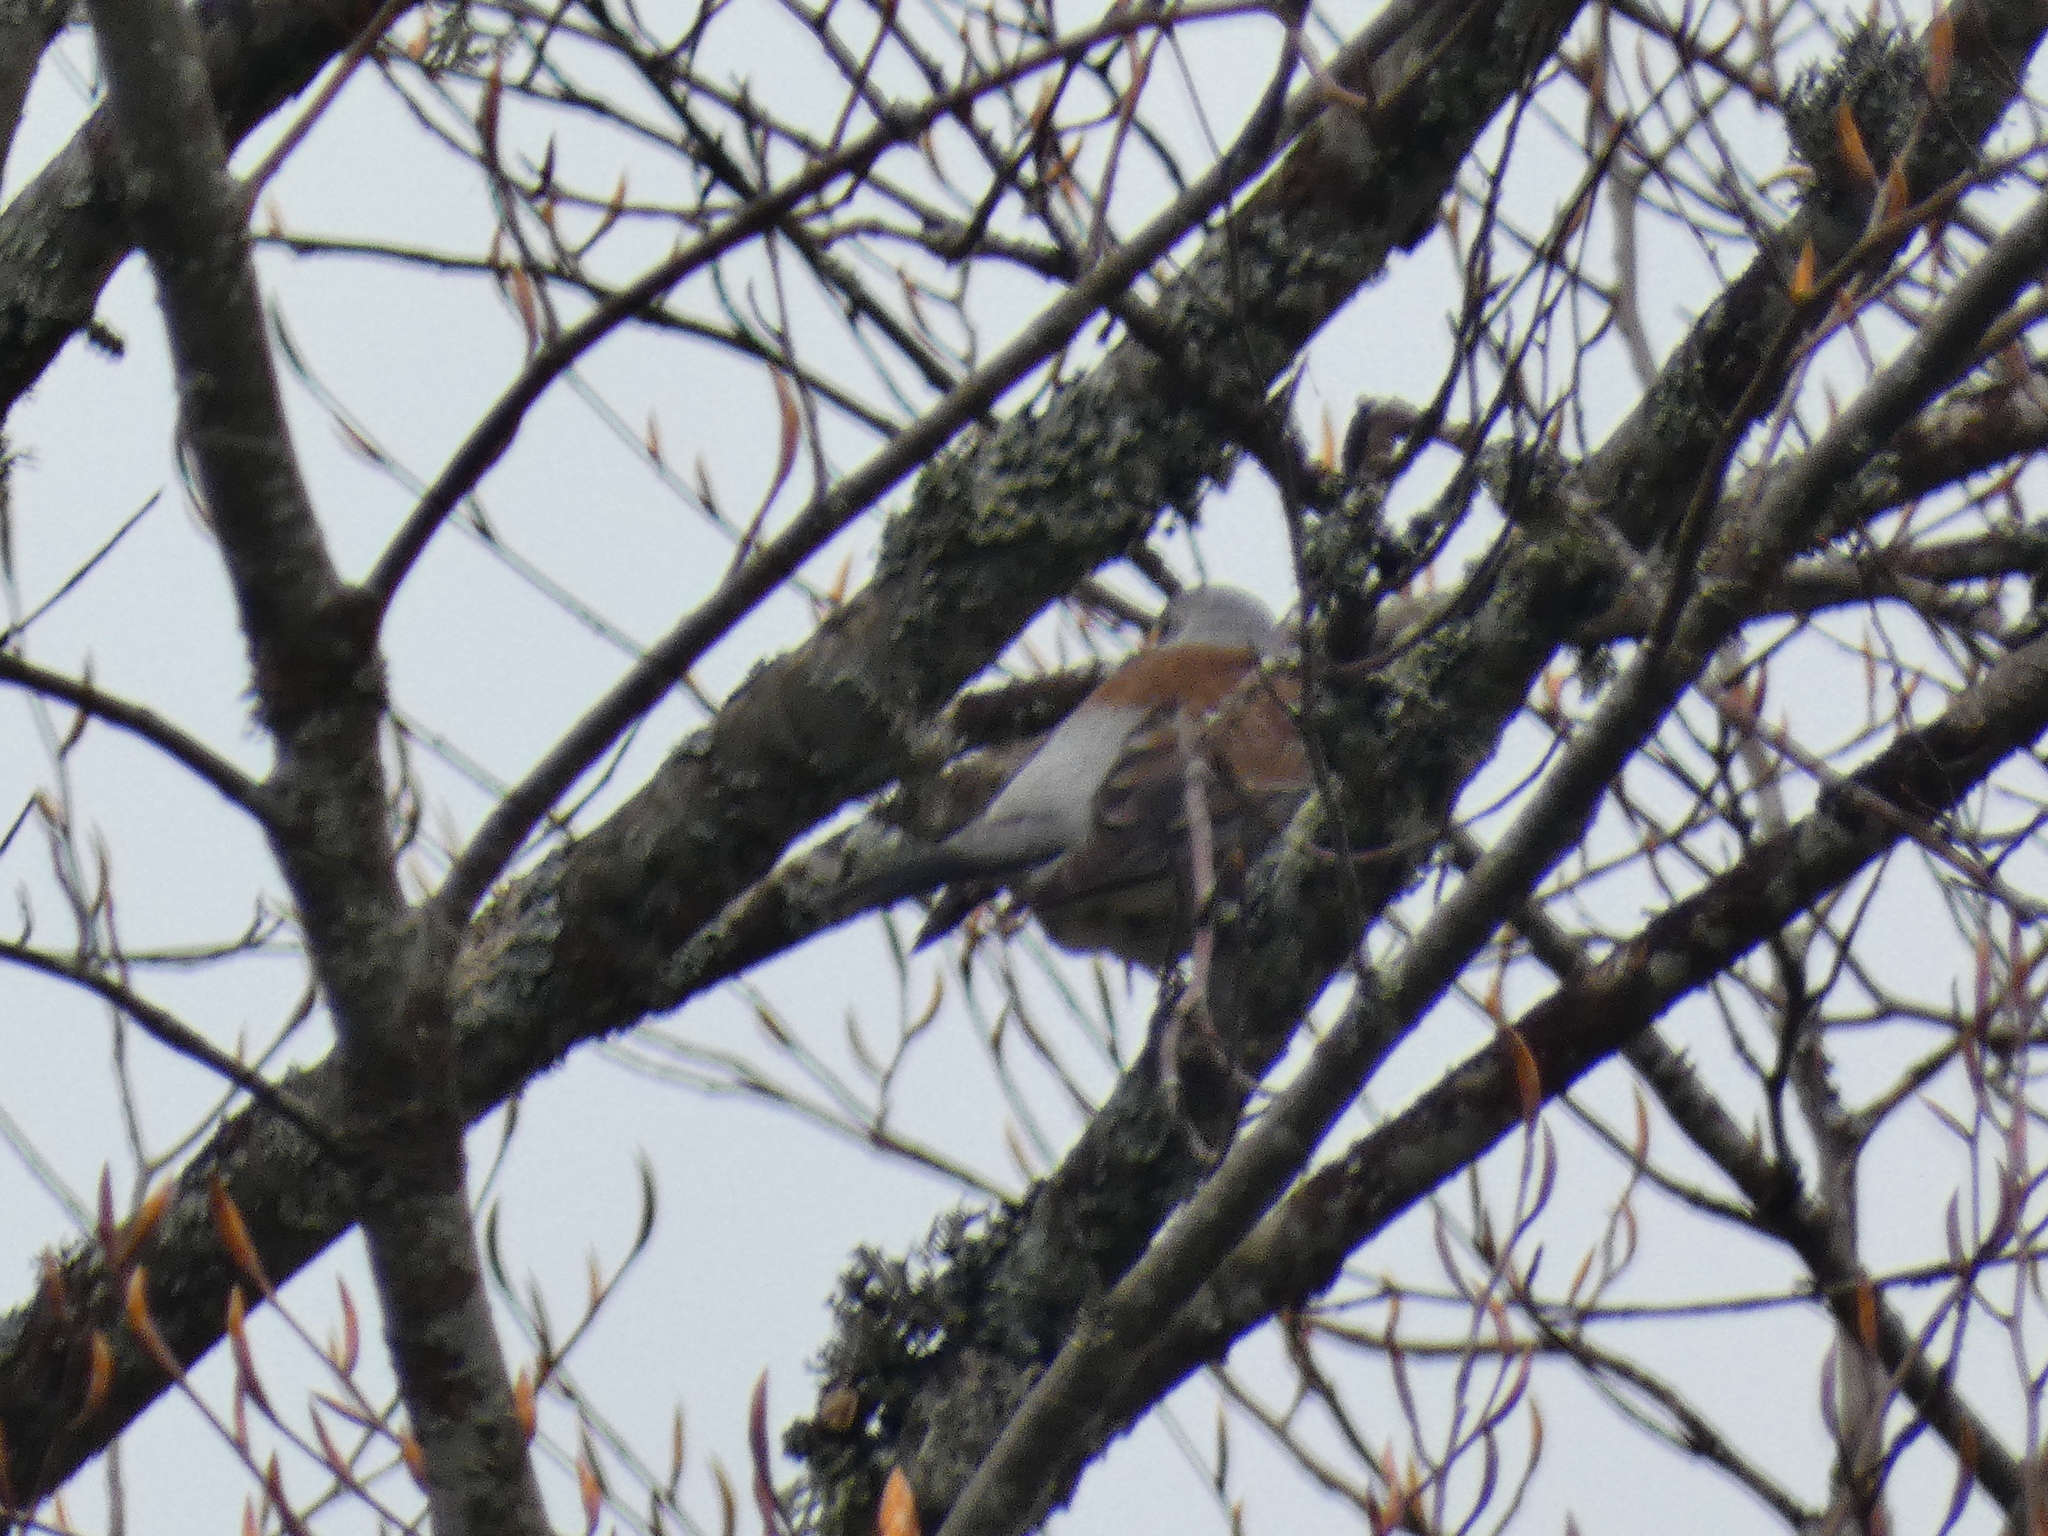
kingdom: Animalia
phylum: Chordata
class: Aves
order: Passeriformes
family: Turdidae
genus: Turdus
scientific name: Turdus pilaris
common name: Fieldfare
